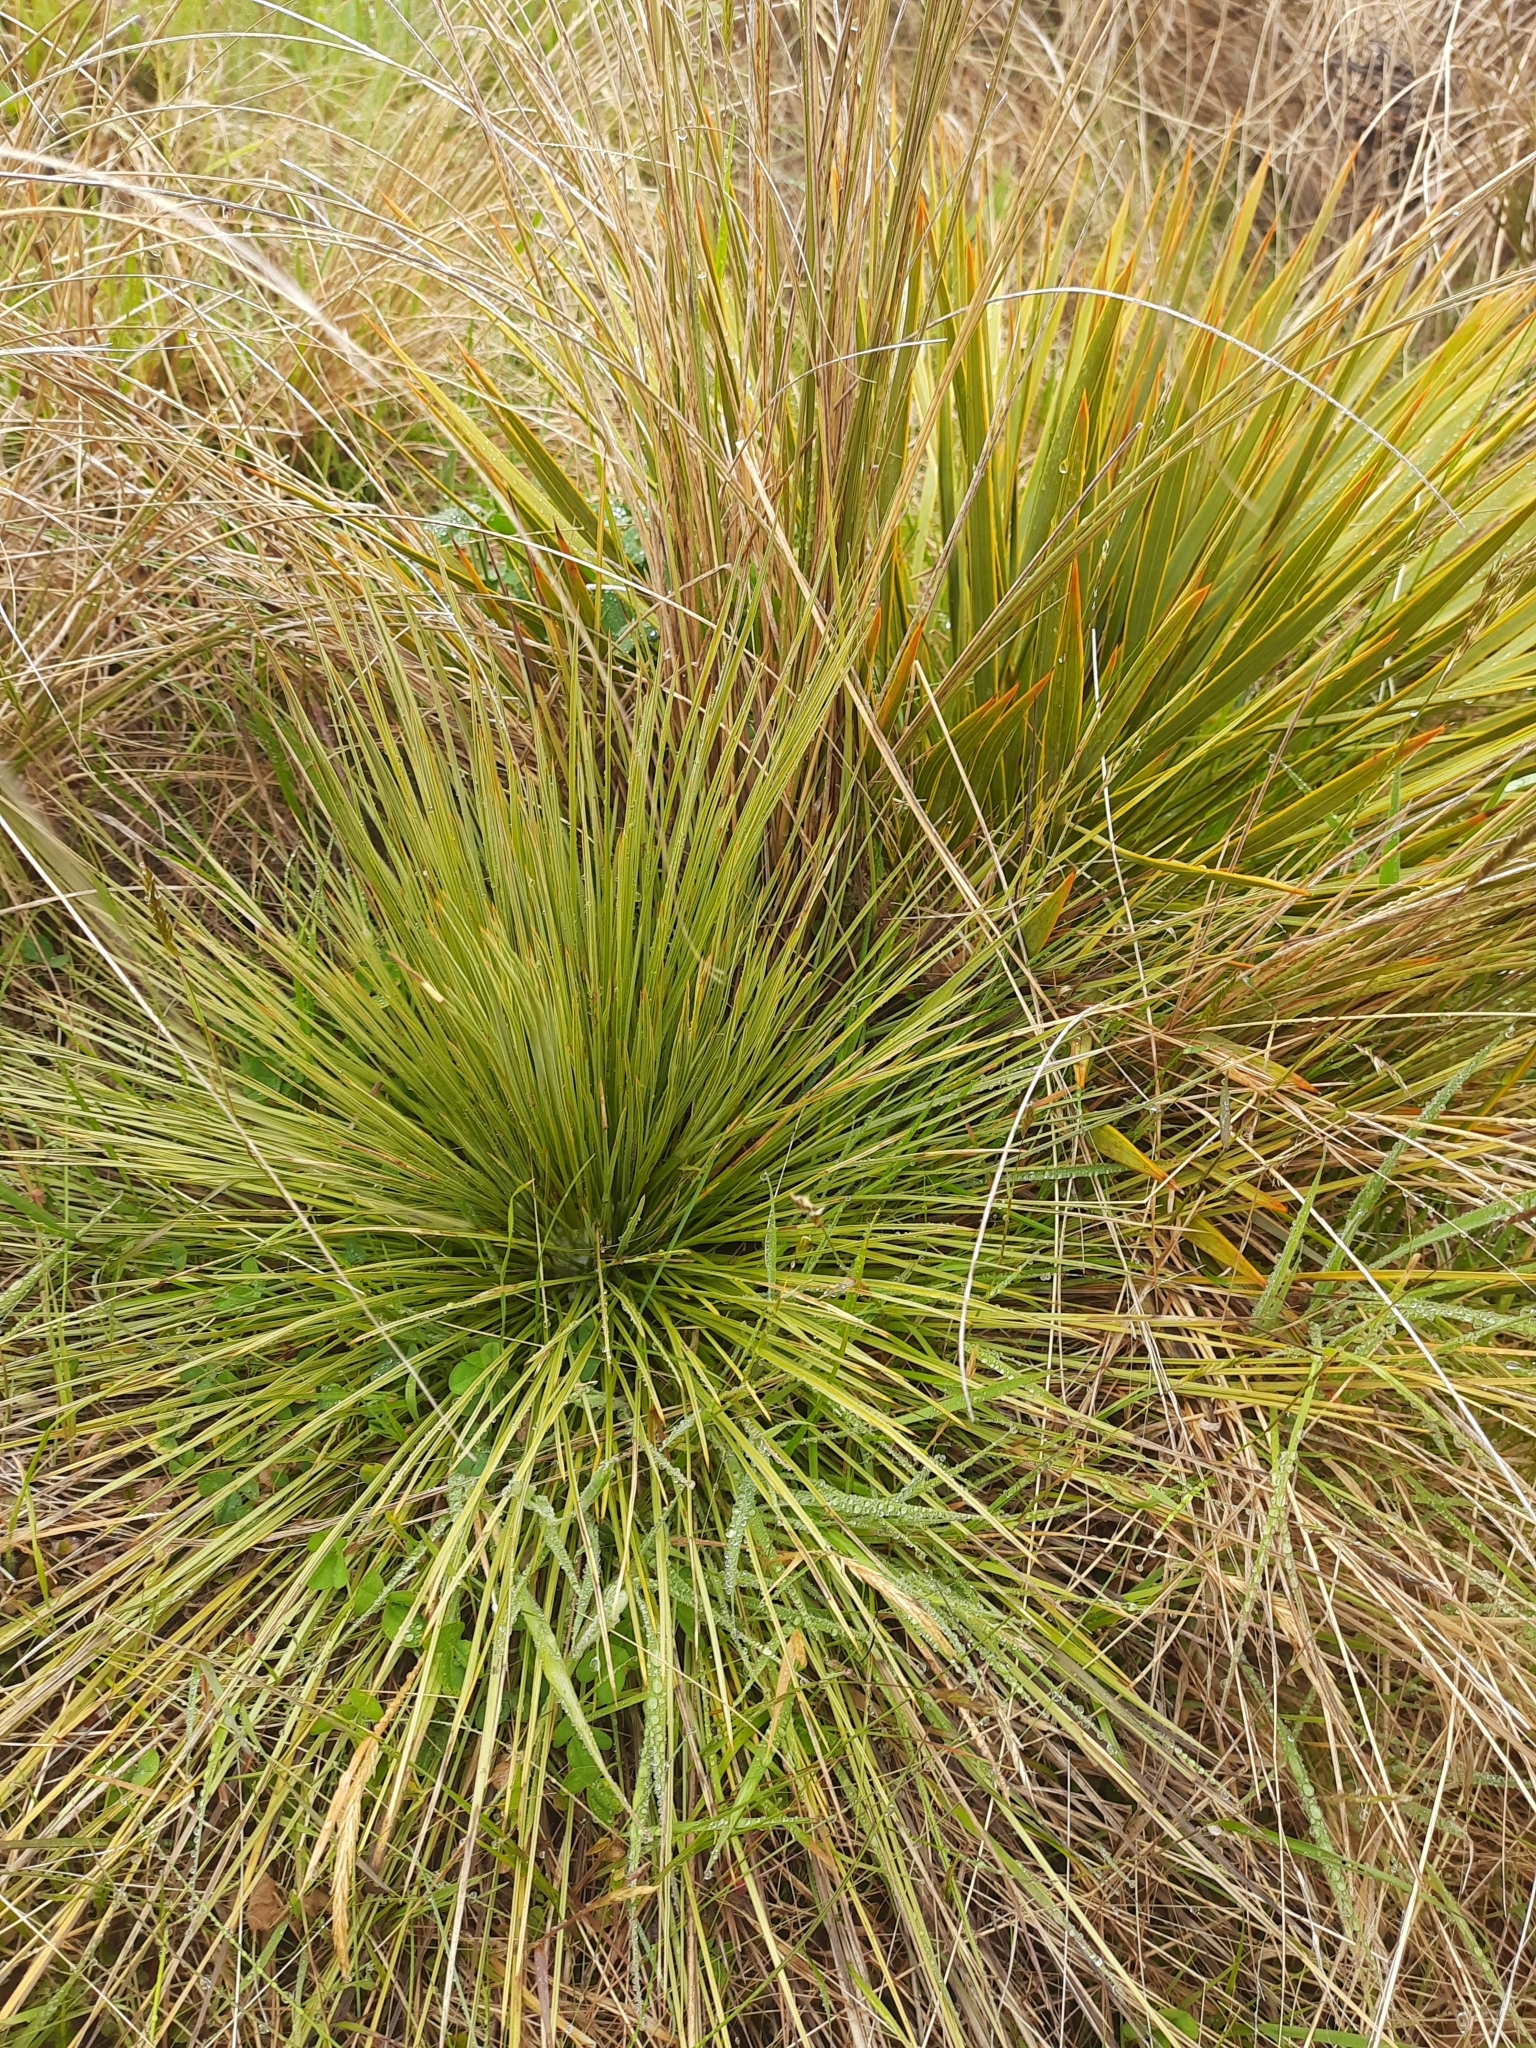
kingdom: Plantae
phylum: Tracheophyta
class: Magnoliopsida
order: Apiales
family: Apiaceae
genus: Aciphylla
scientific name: Aciphylla subflabellata
